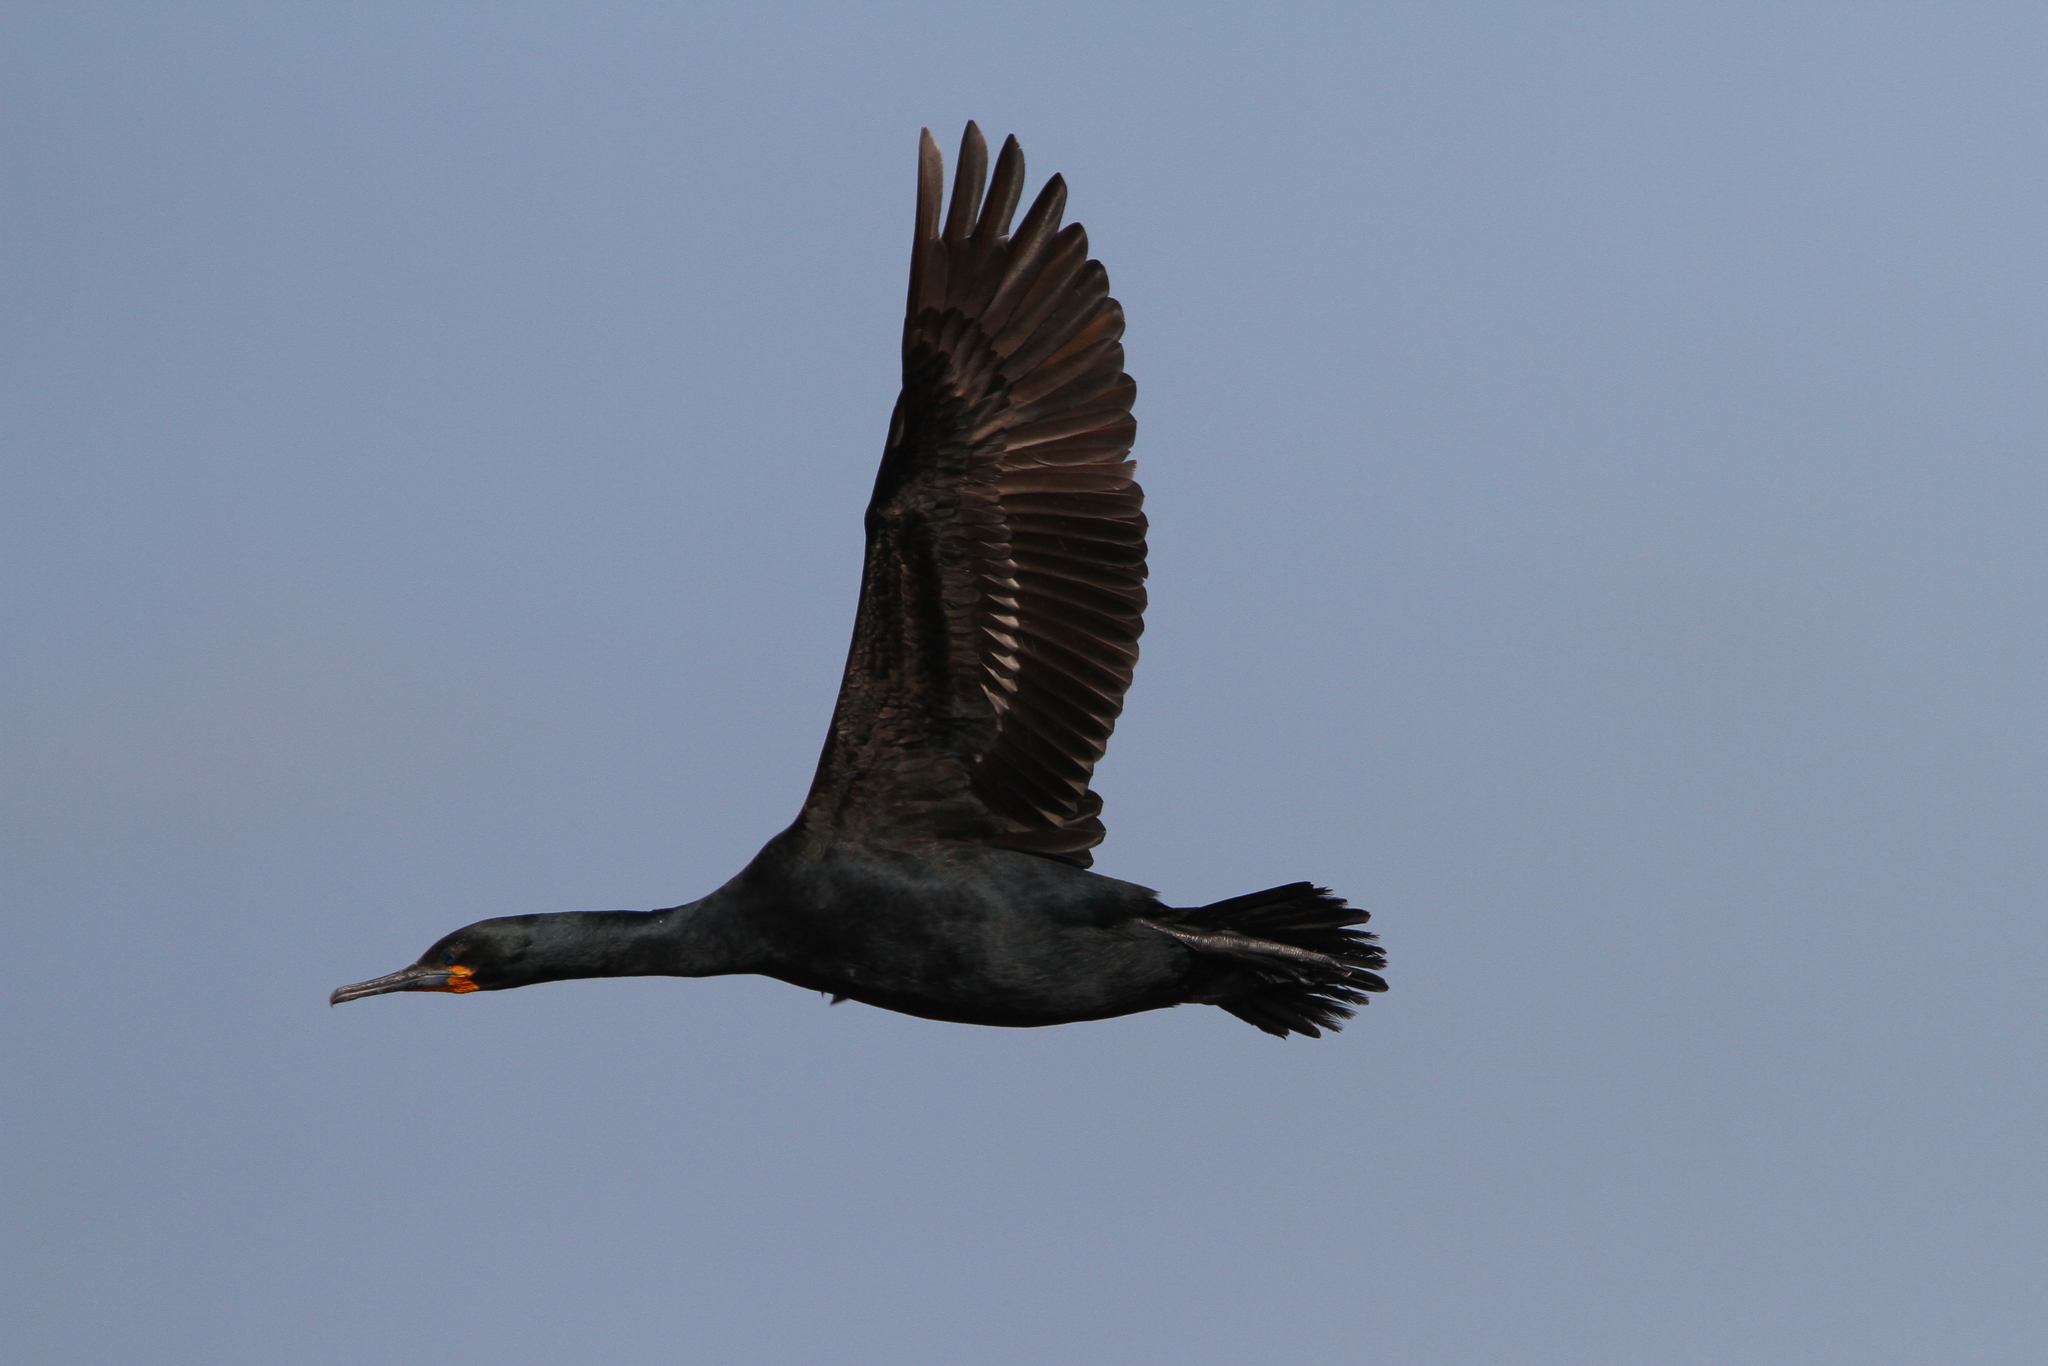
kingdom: Animalia
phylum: Chordata
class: Aves
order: Suliformes
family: Phalacrocoracidae
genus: Phalacrocorax
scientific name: Phalacrocorax capensis
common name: Cape cormorant
